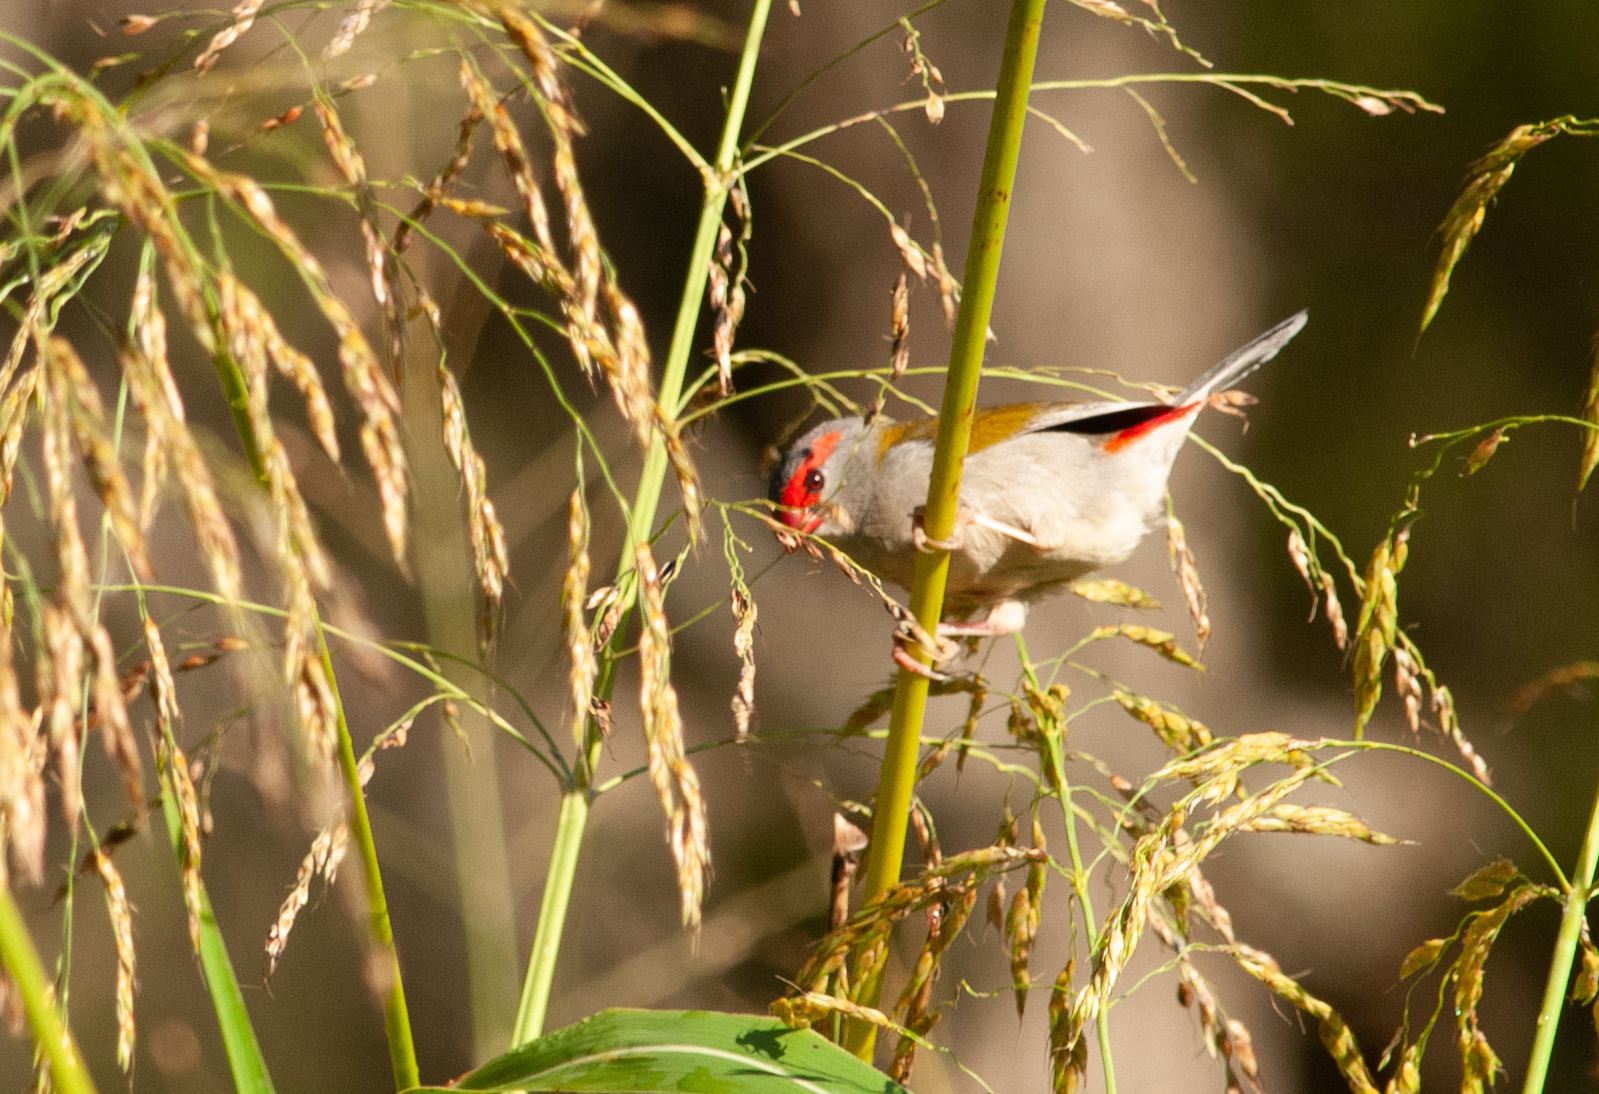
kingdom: Animalia
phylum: Chordata
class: Aves
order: Passeriformes
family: Estrildidae
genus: Neochmia
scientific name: Neochmia temporalis
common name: Red-browed finch
